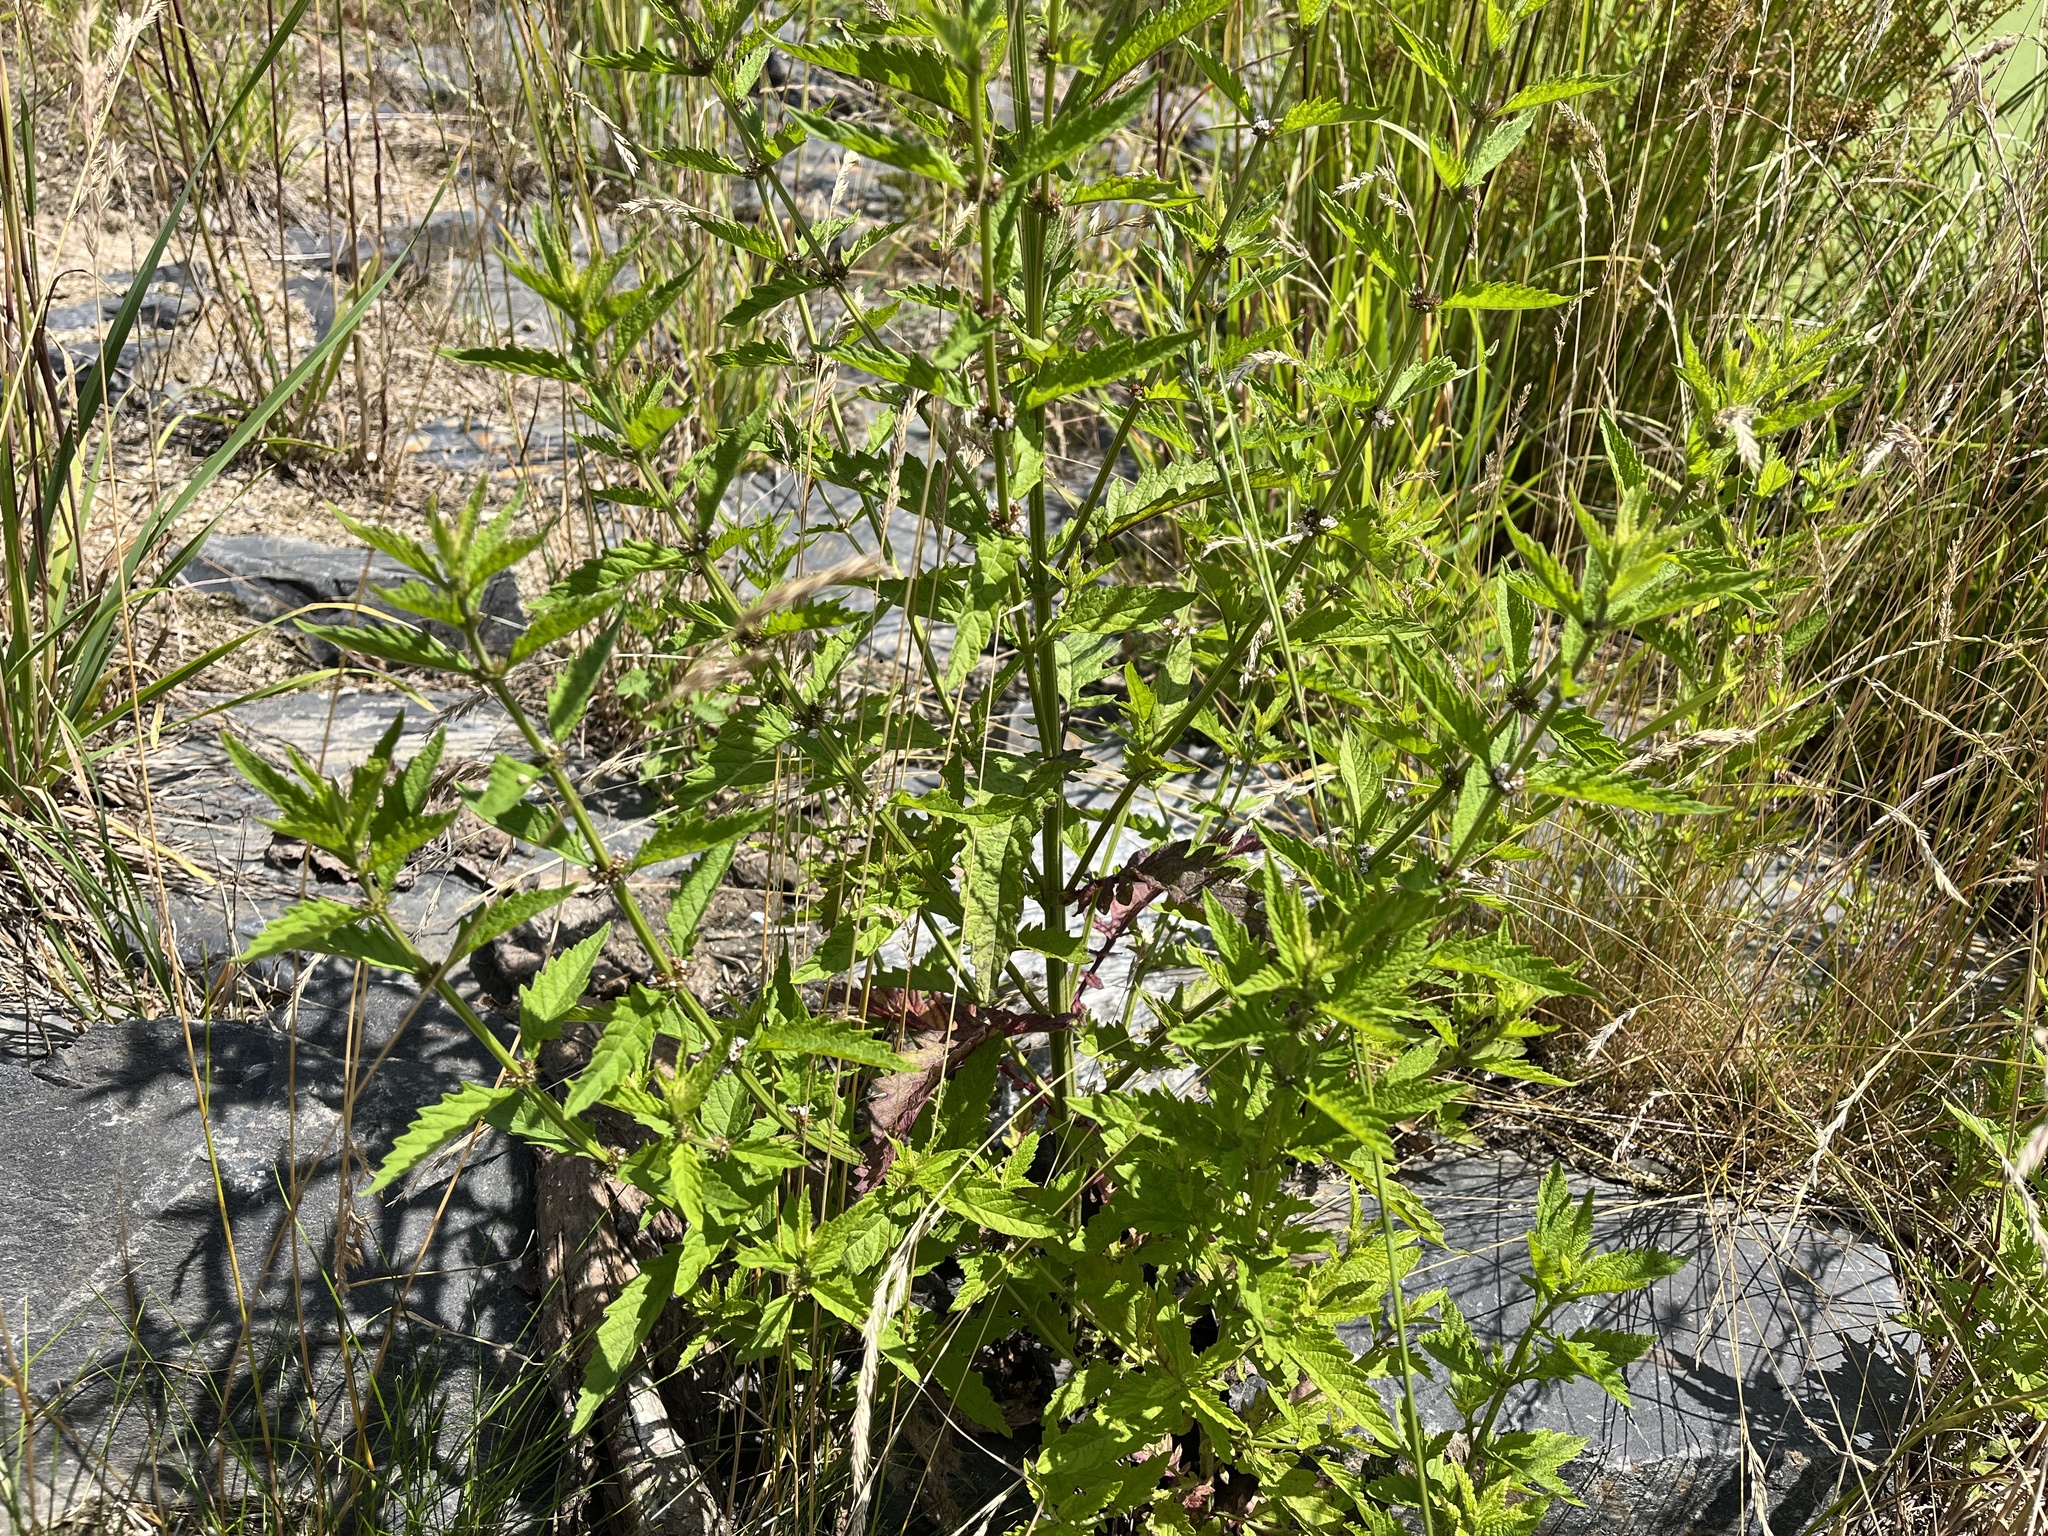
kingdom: Plantae
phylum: Tracheophyta
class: Magnoliopsida
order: Lamiales
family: Lamiaceae
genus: Lycopus
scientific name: Lycopus europaeus
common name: European bugleweed
